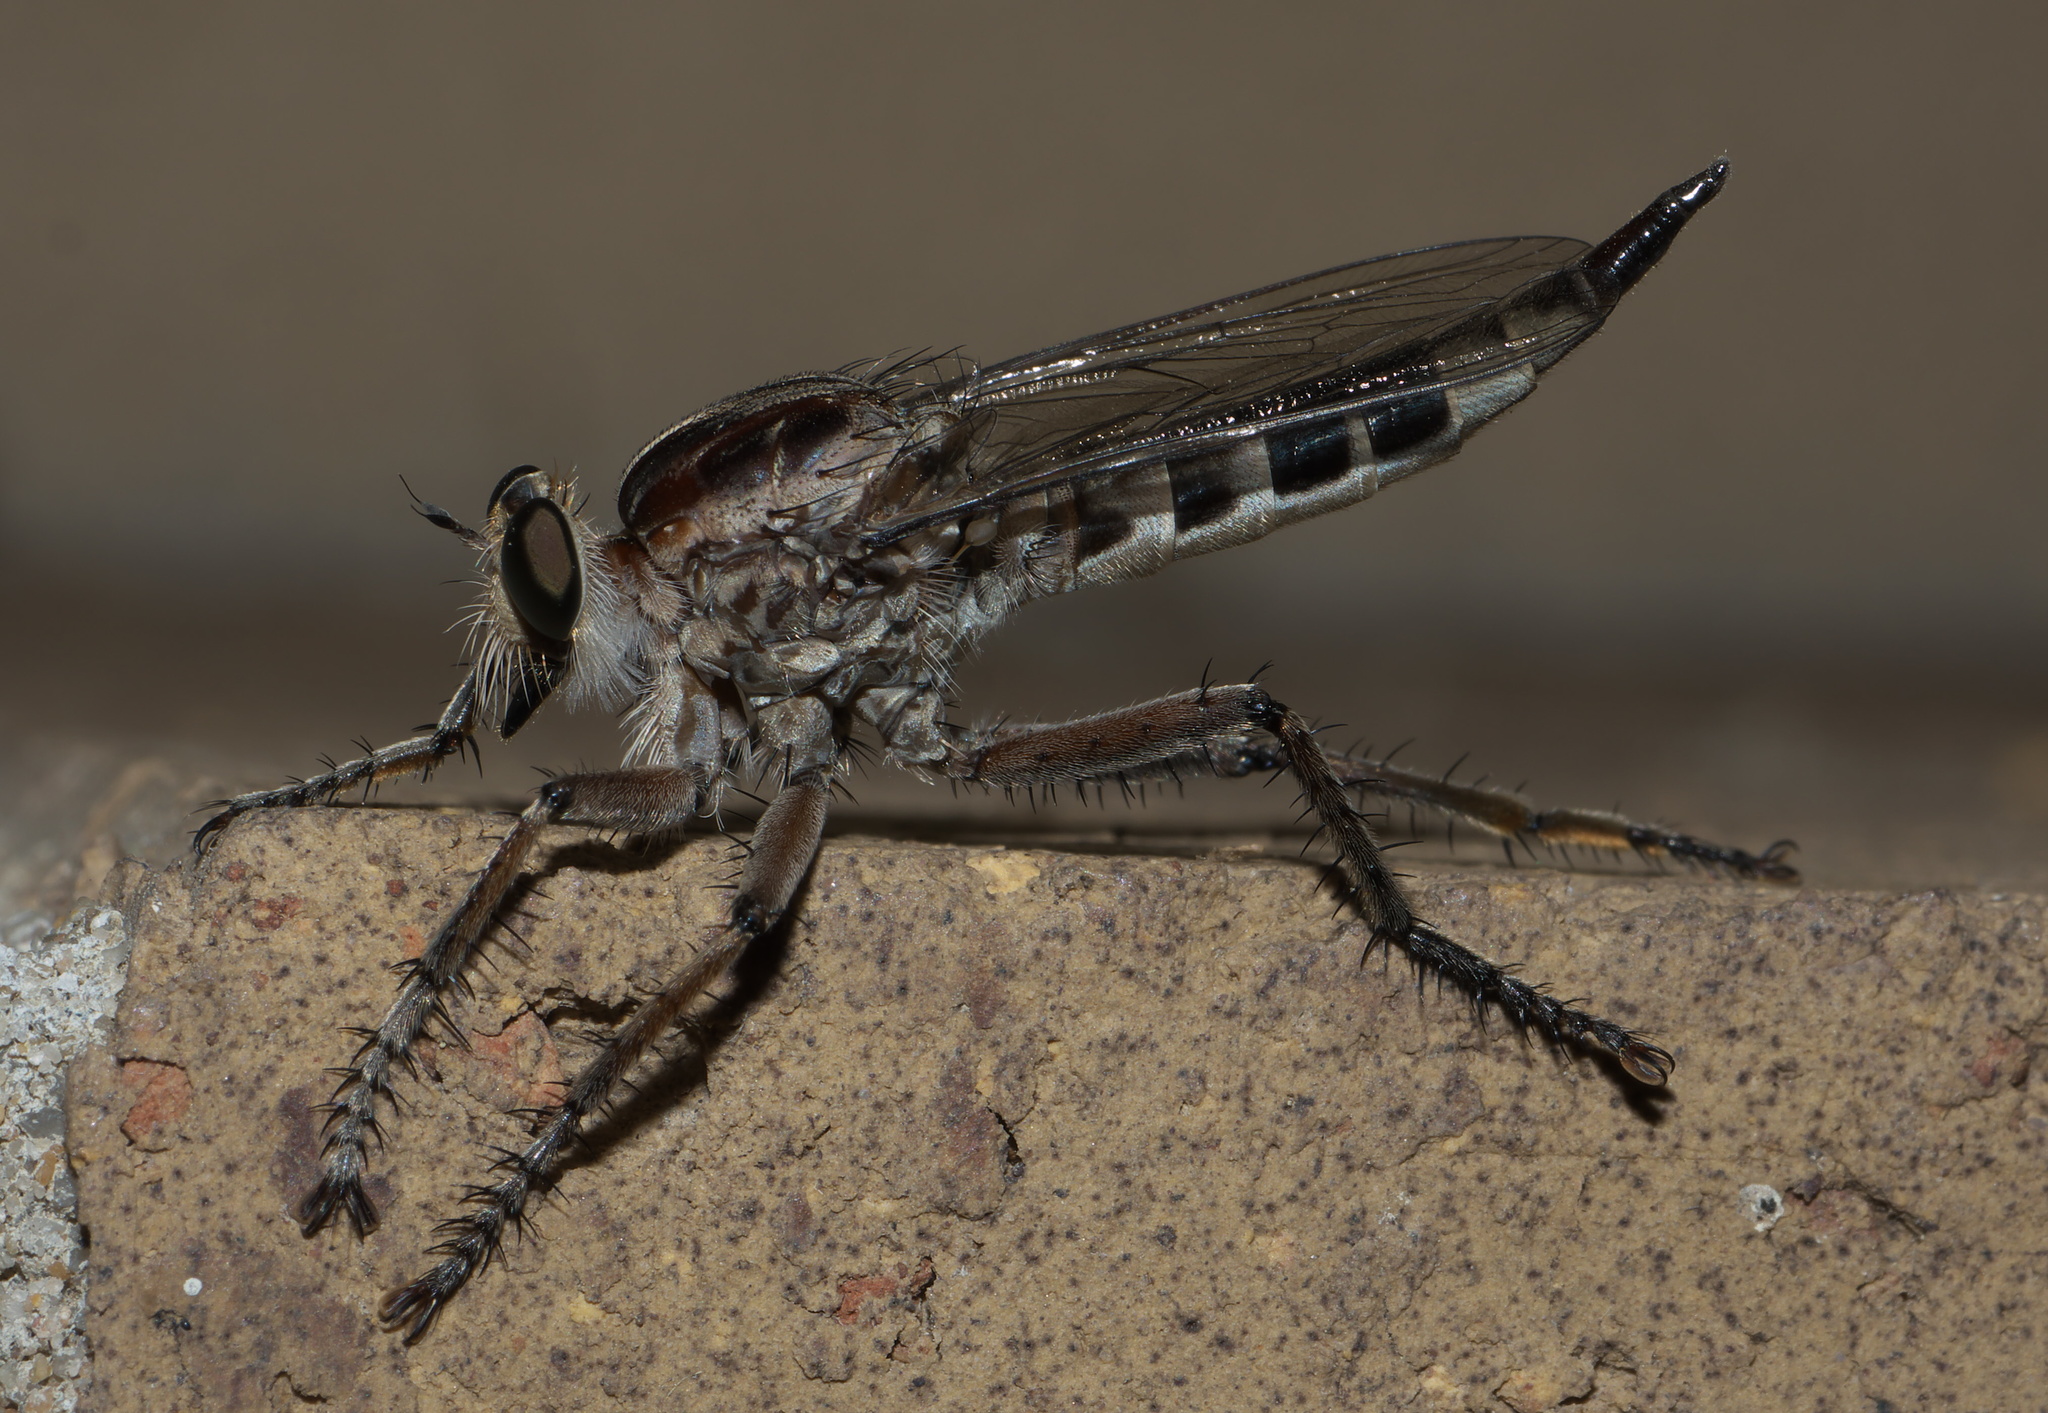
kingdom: Animalia
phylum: Arthropoda
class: Insecta
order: Diptera
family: Asilidae
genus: Triorla
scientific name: Triorla interrupta
